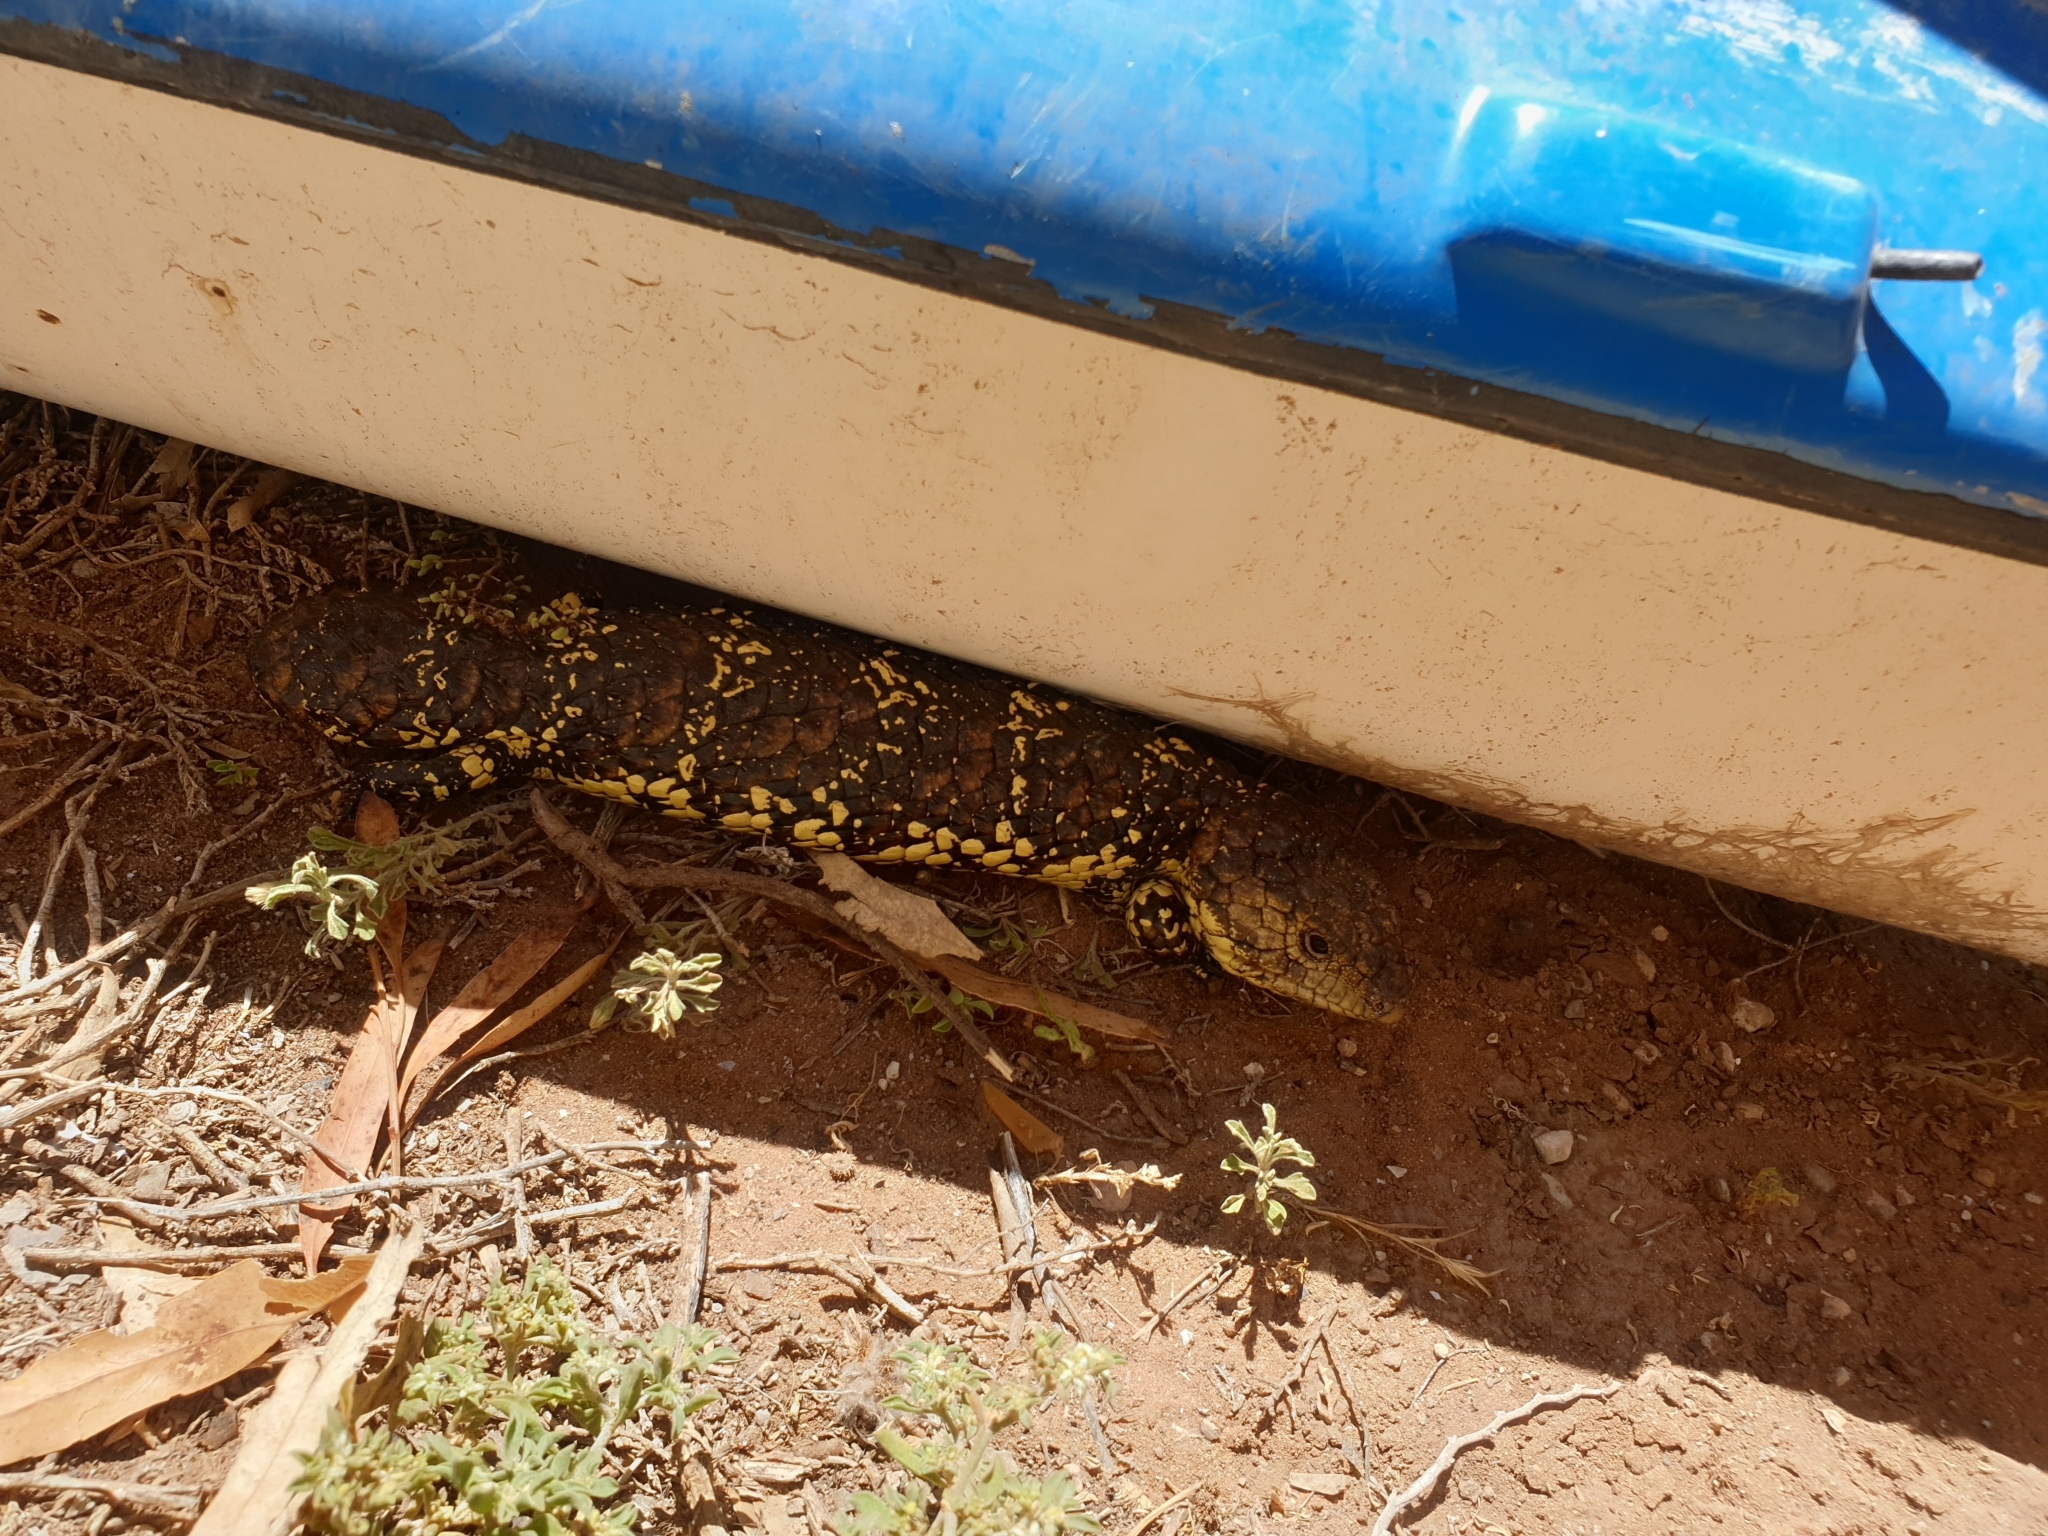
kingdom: Animalia
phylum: Chordata
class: Squamata
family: Scincidae
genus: Tiliqua
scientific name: Tiliqua rugosa
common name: Pinecone lizard
